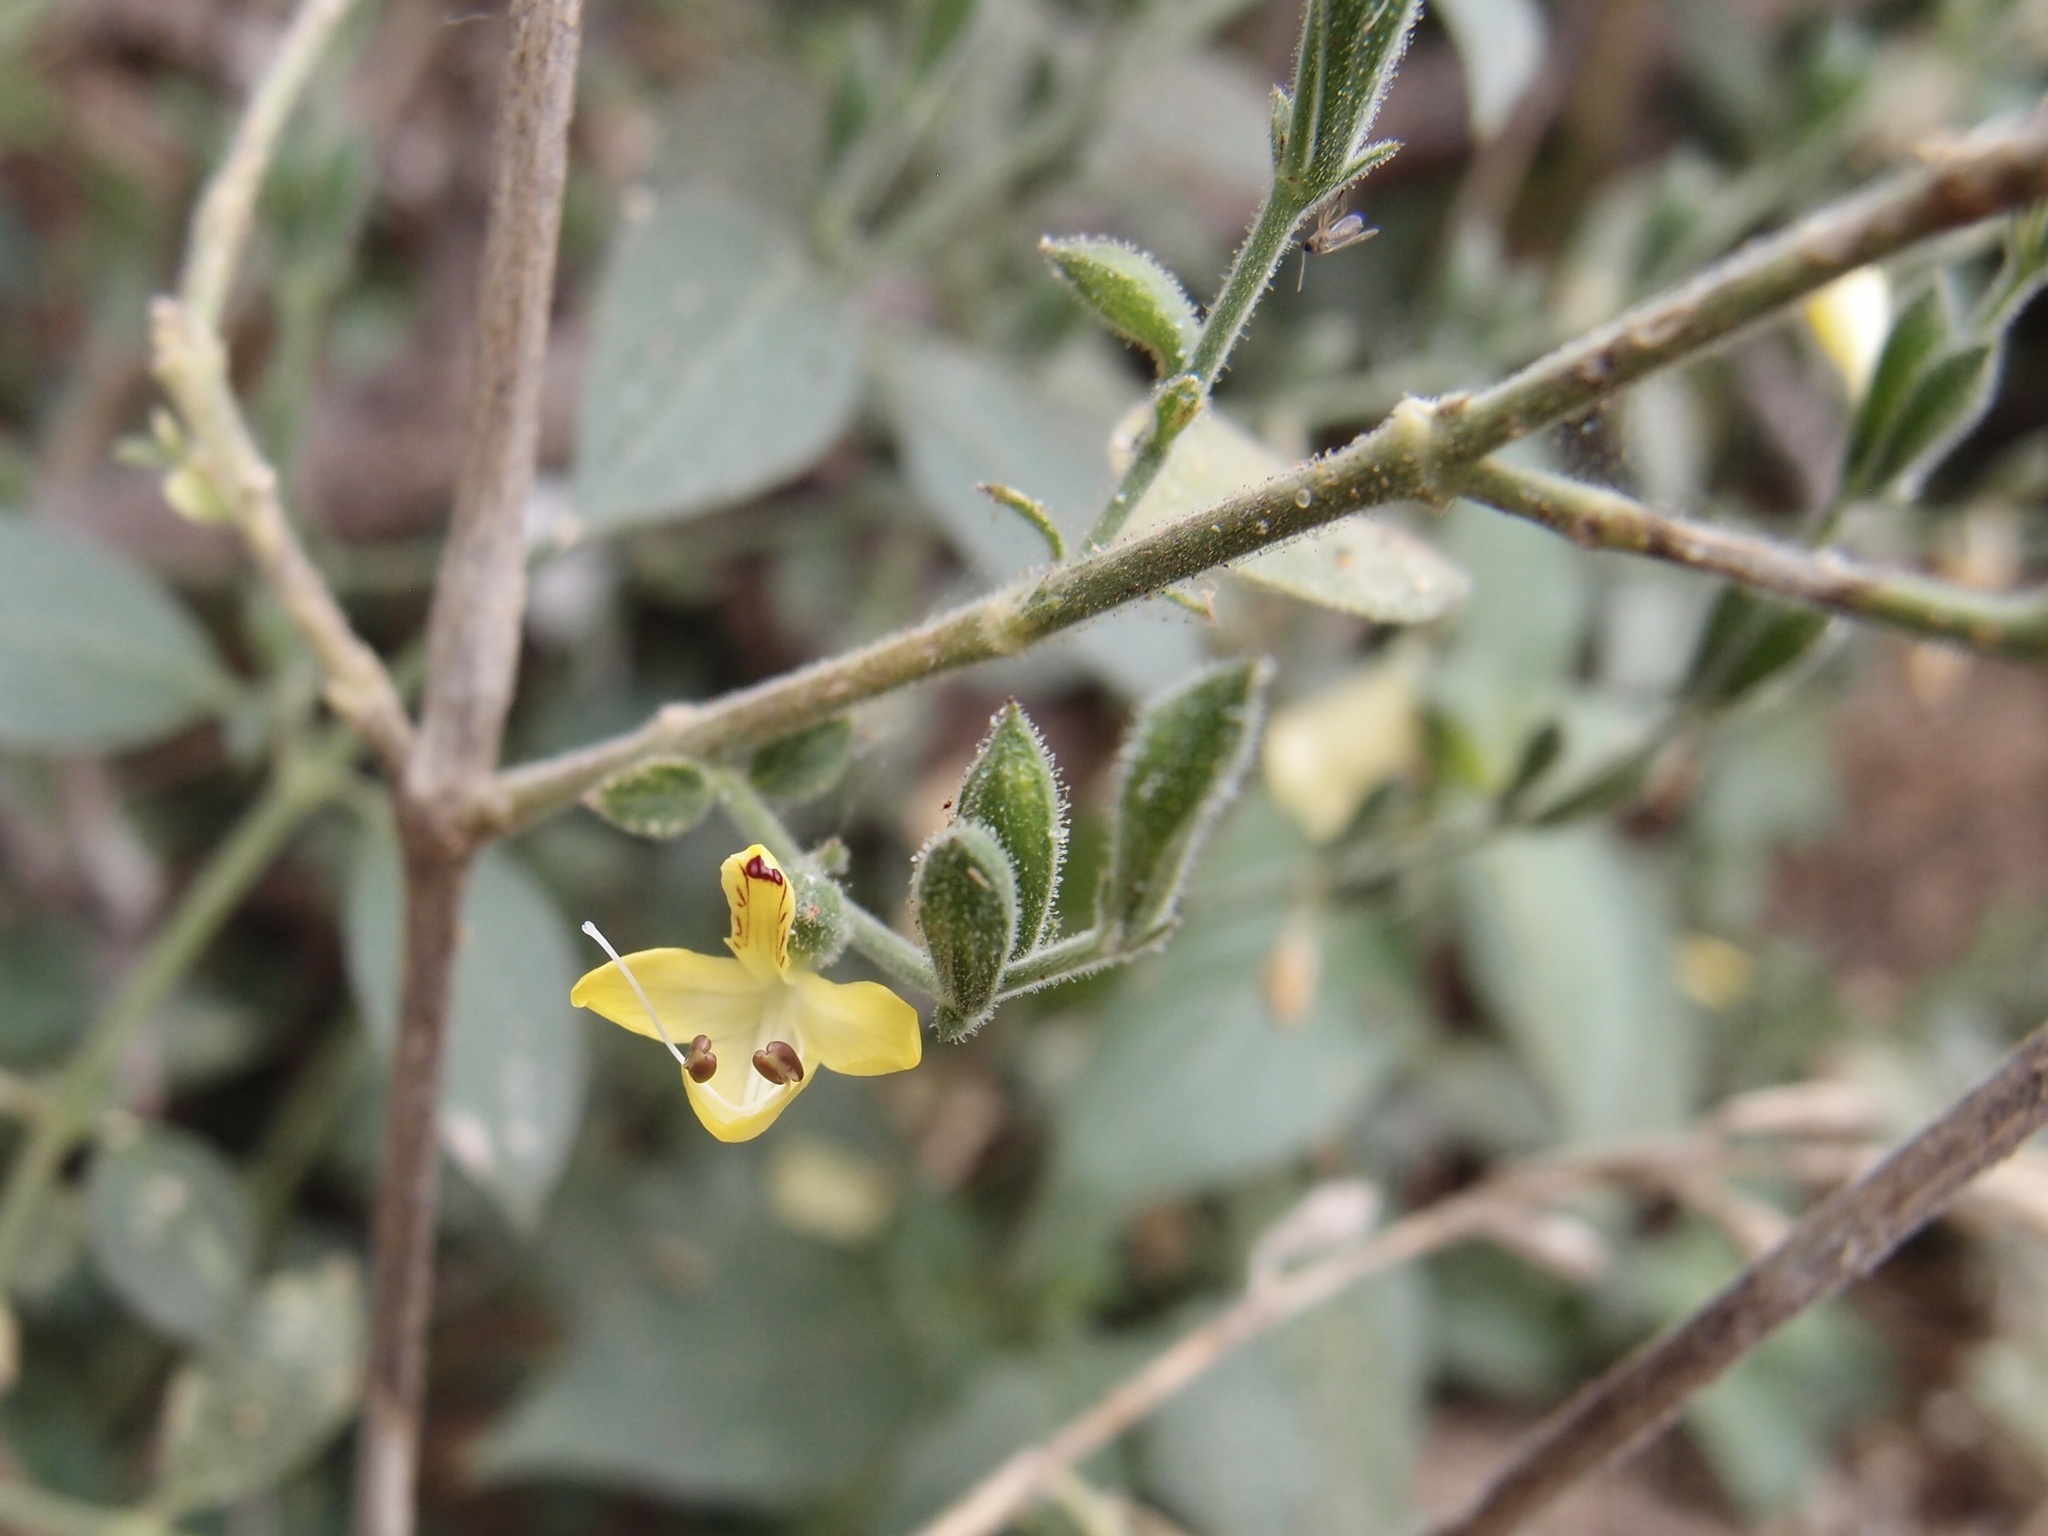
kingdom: Plantae
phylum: Tracheophyta
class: Magnoliopsida
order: Lamiales
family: Acanthaceae
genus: Henrya
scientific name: Henrya insularis
